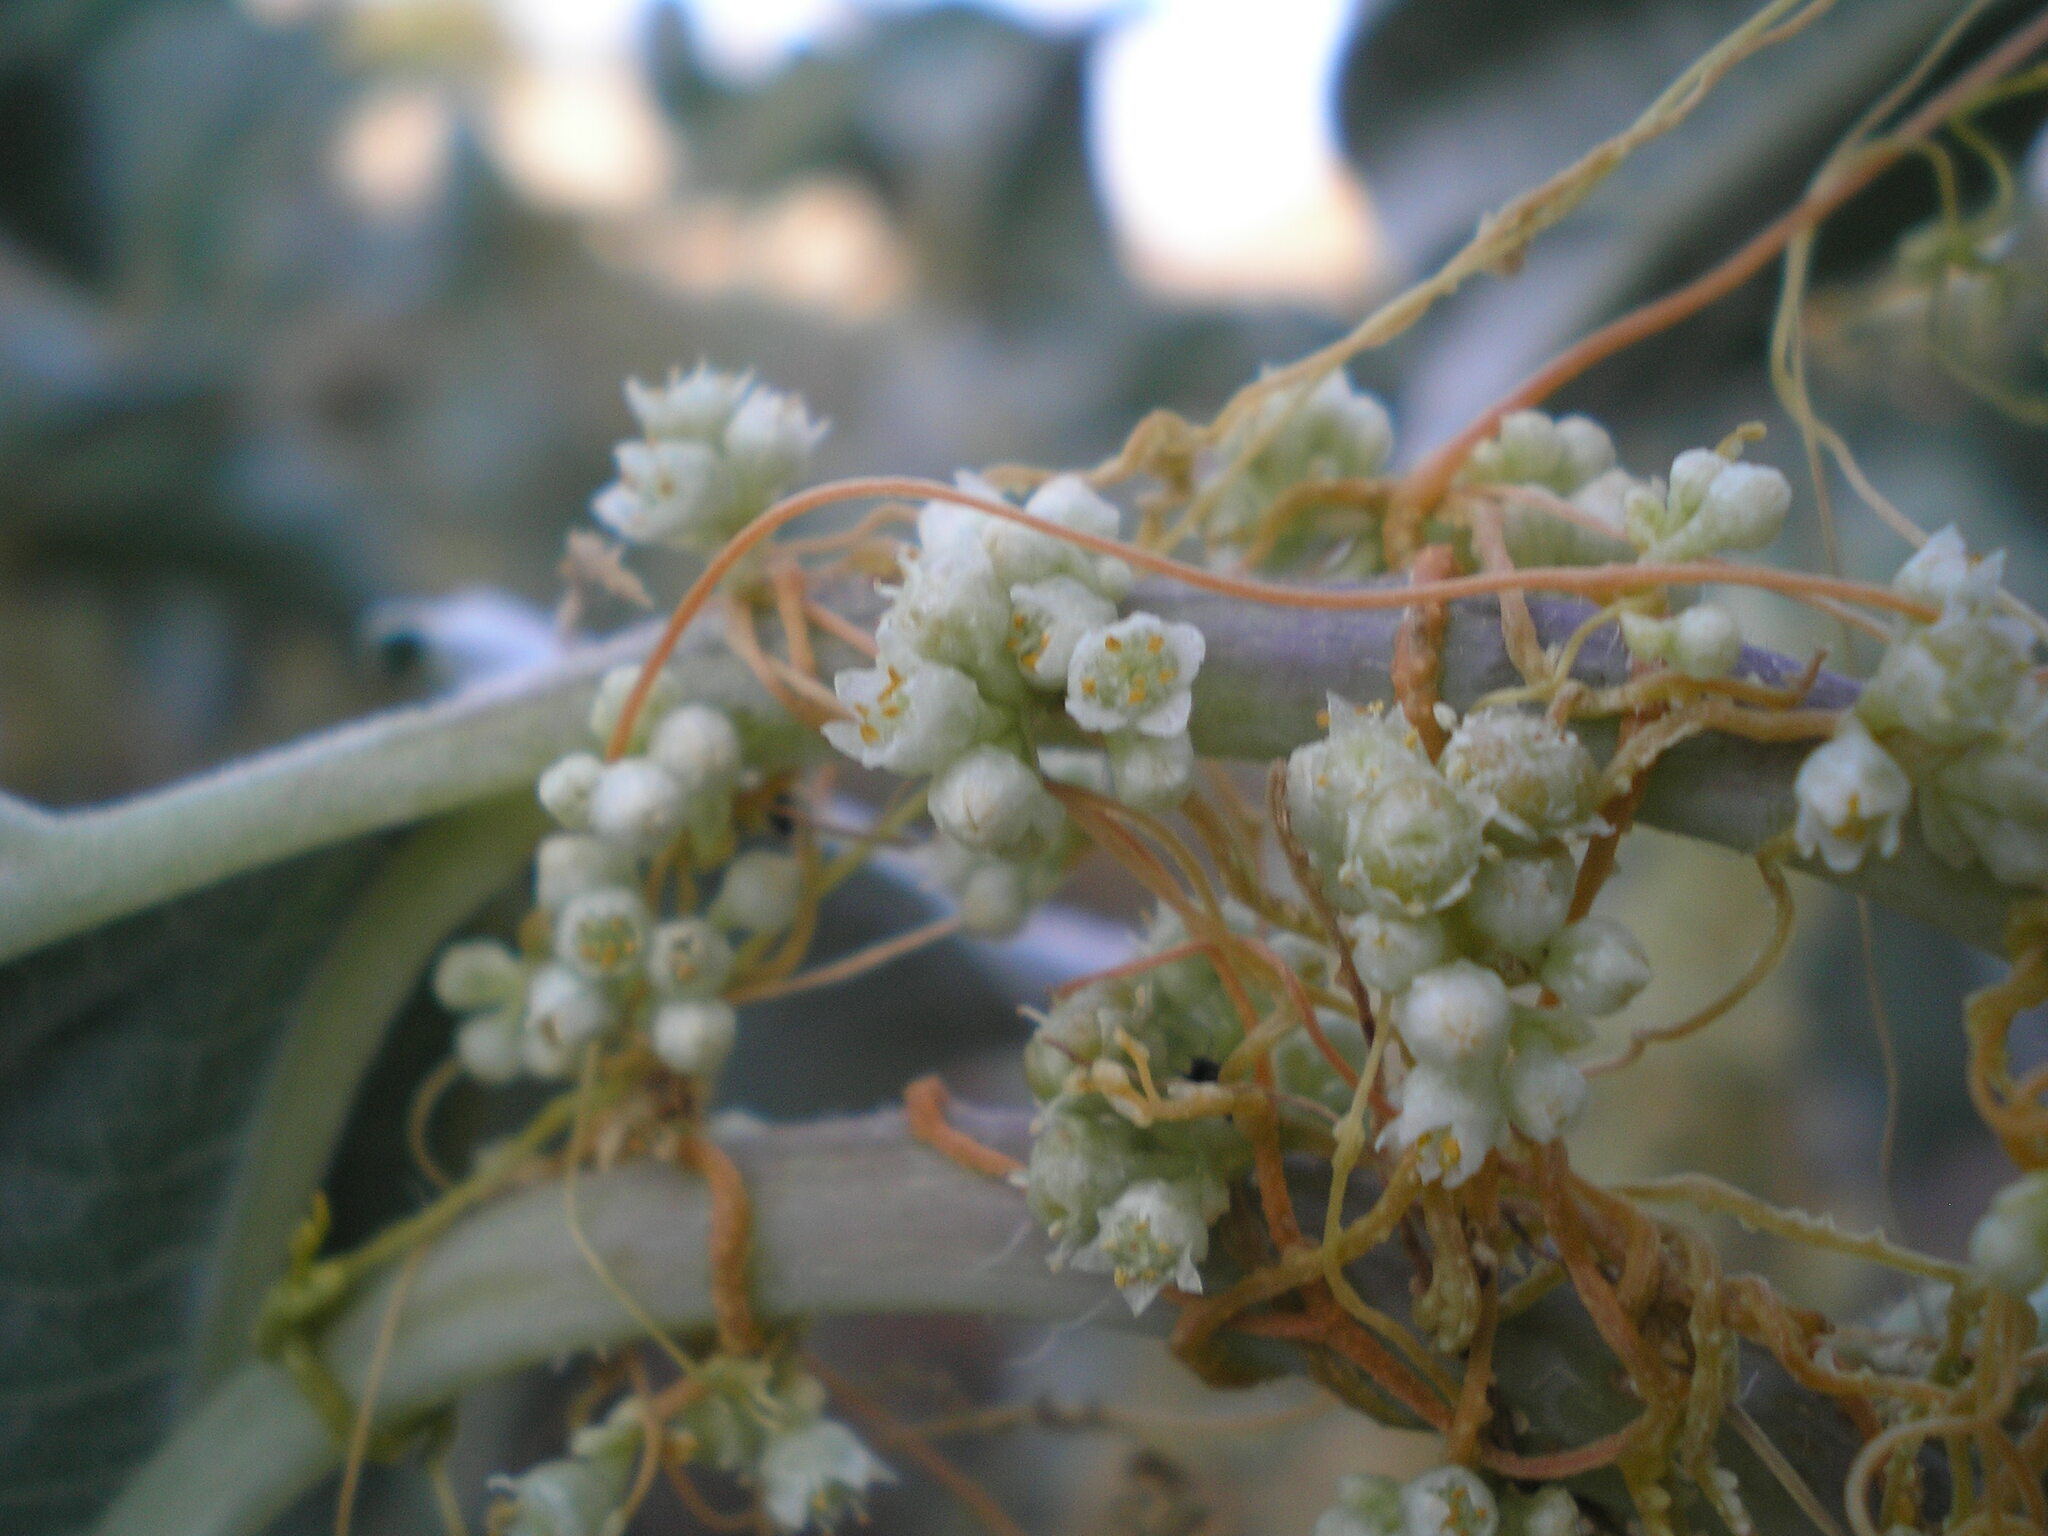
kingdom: Plantae
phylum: Tracheophyta
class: Magnoliopsida
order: Solanales
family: Convolvulaceae
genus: Cuscuta
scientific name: Cuscuta campestris
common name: Yellow dodder
